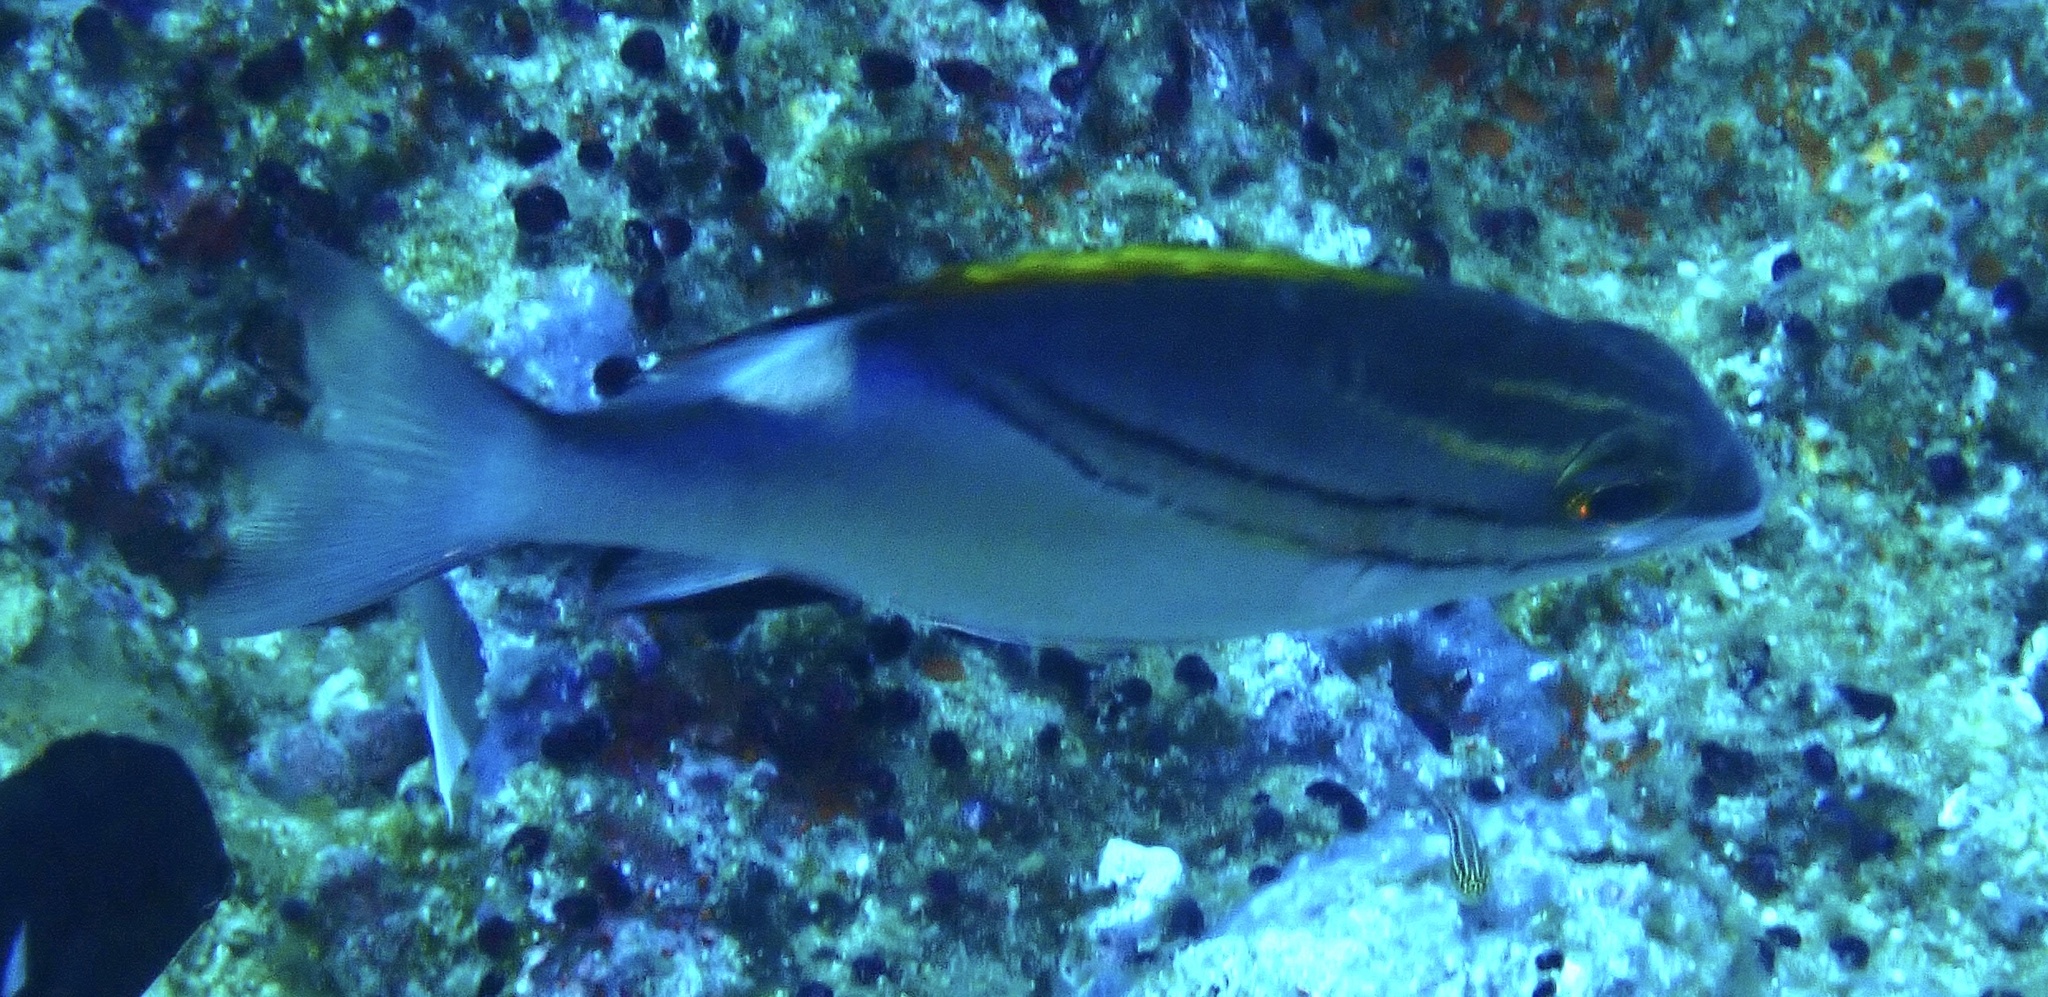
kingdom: Animalia
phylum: Chordata
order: Perciformes
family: Nemipteridae
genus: Scolopsis
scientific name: Scolopsis bilineata
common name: Two-lined monocle bream
